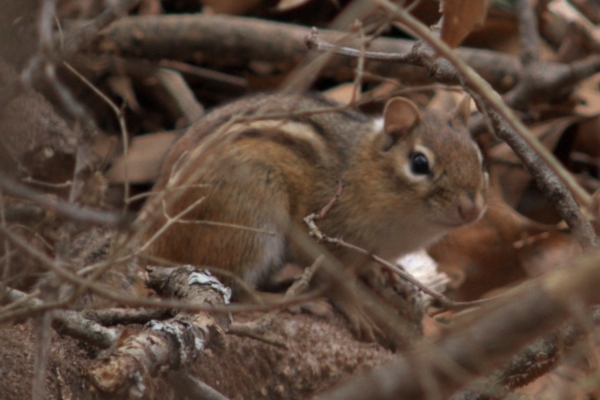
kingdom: Animalia
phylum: Chordata
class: Mammalia
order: Rodentia
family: Sciuridae
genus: Tamias
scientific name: Tamias striatus
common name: Eastern chipmunk
